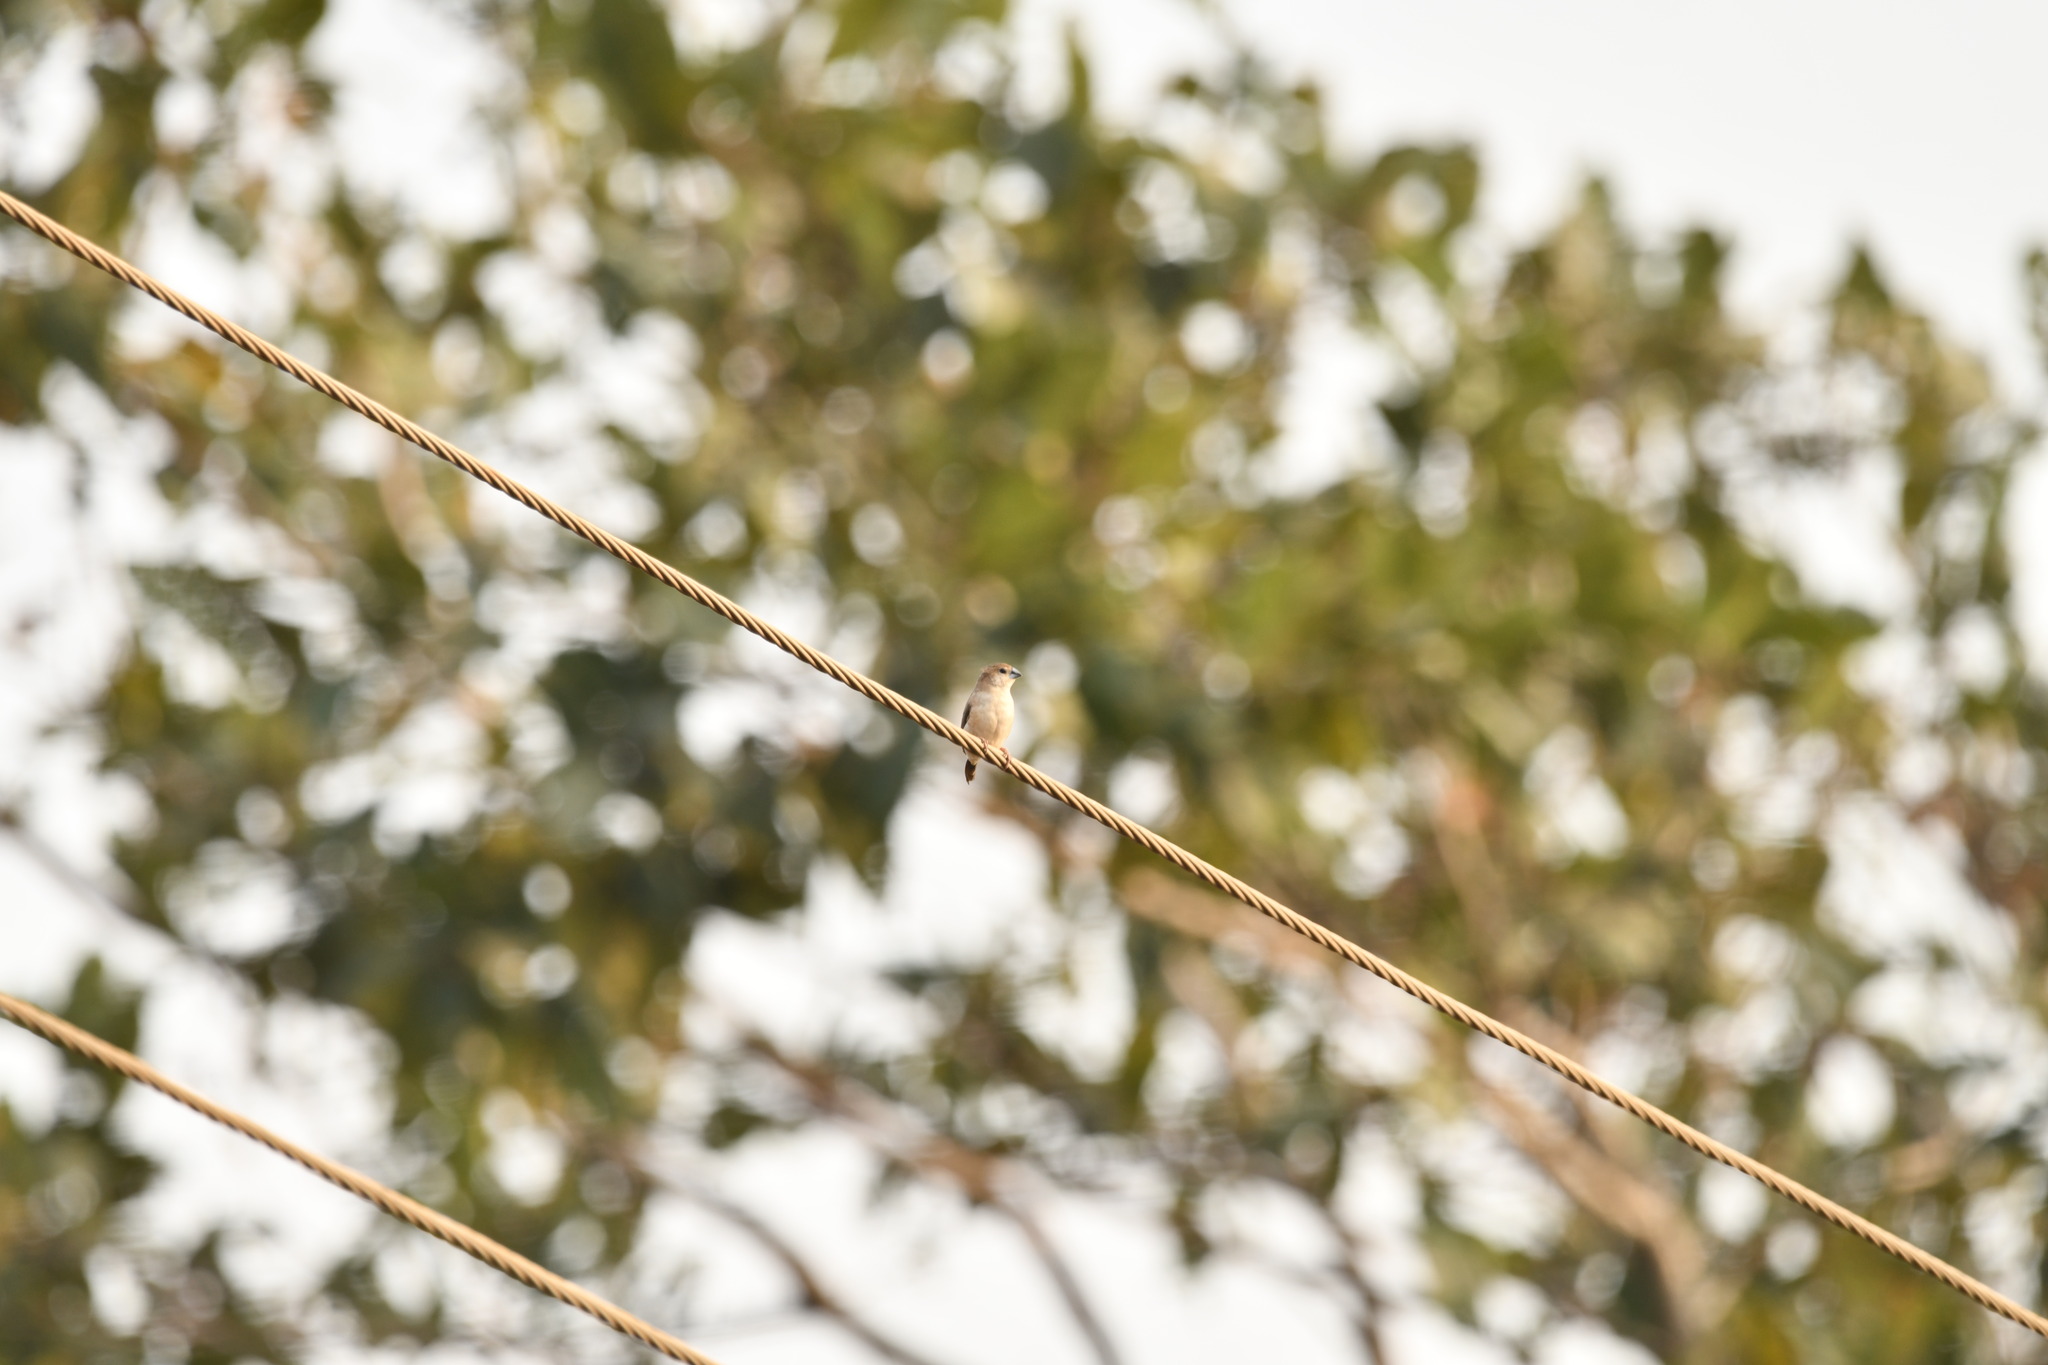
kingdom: Animalia
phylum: Chordata
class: Aves
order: Passeriformes
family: Estrildidae
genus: Euodice
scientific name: Euodice malabarica
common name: Indian silverbill
